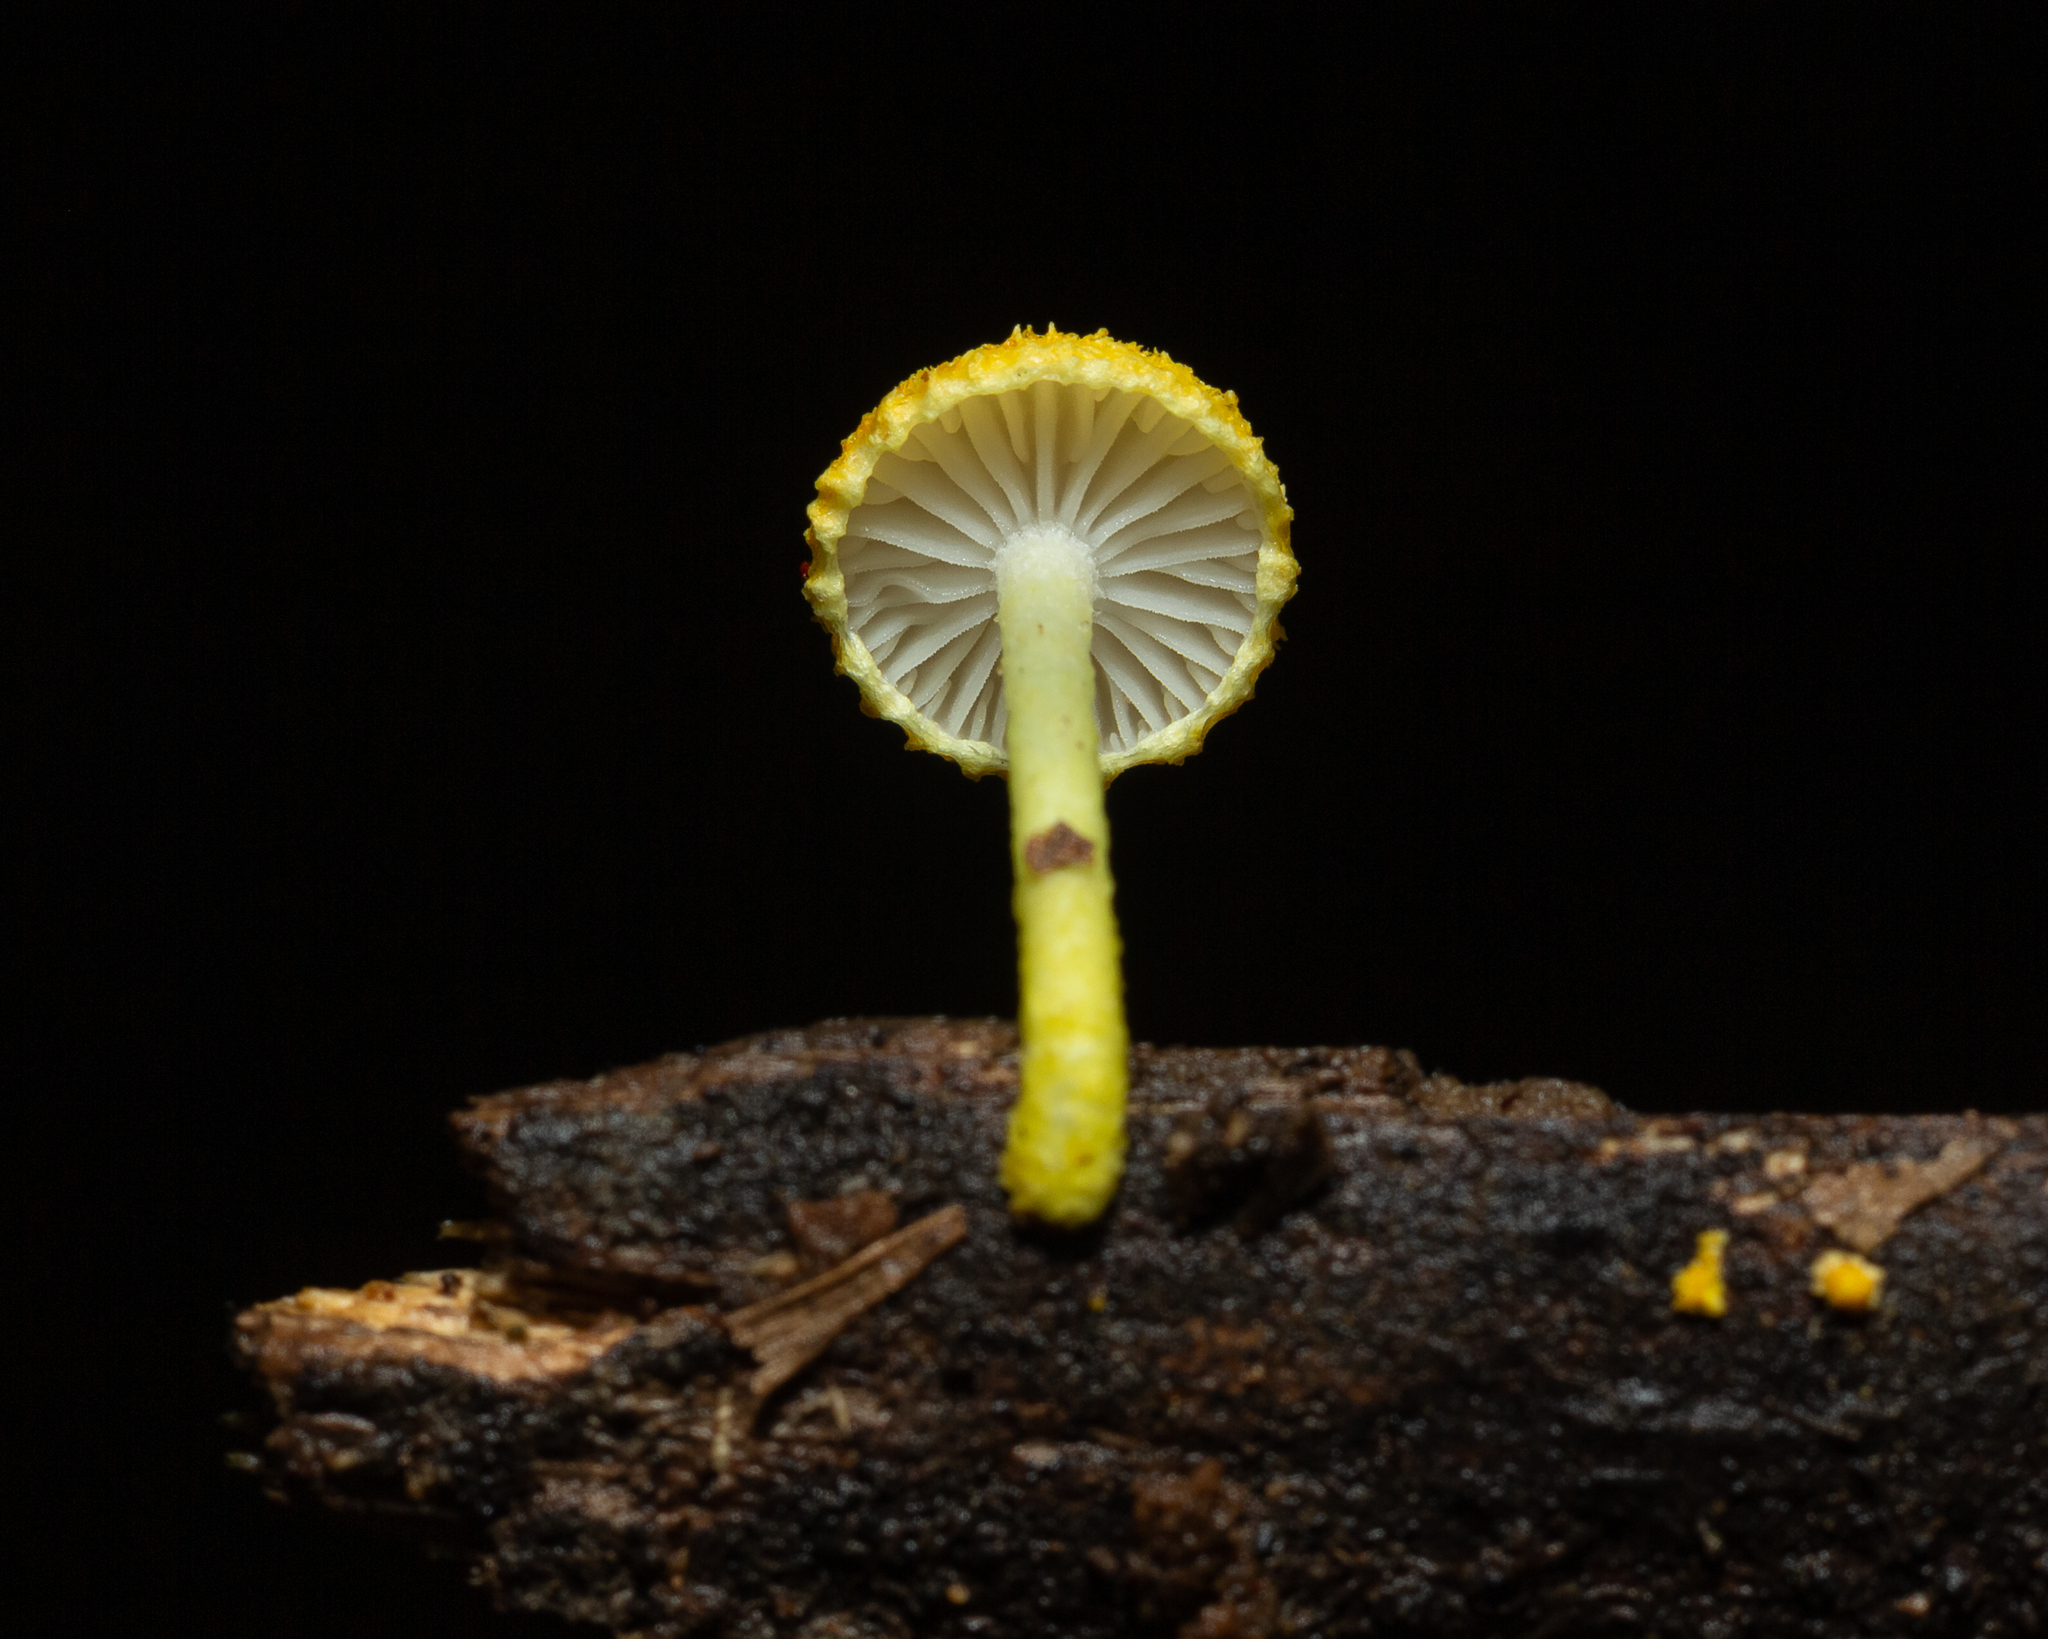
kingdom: Fungi
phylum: Basidiomycota
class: Agaricomycetes
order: Agaricales
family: Physalacriaceae
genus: Cyptotrama
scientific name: Cyptotrama asprata
